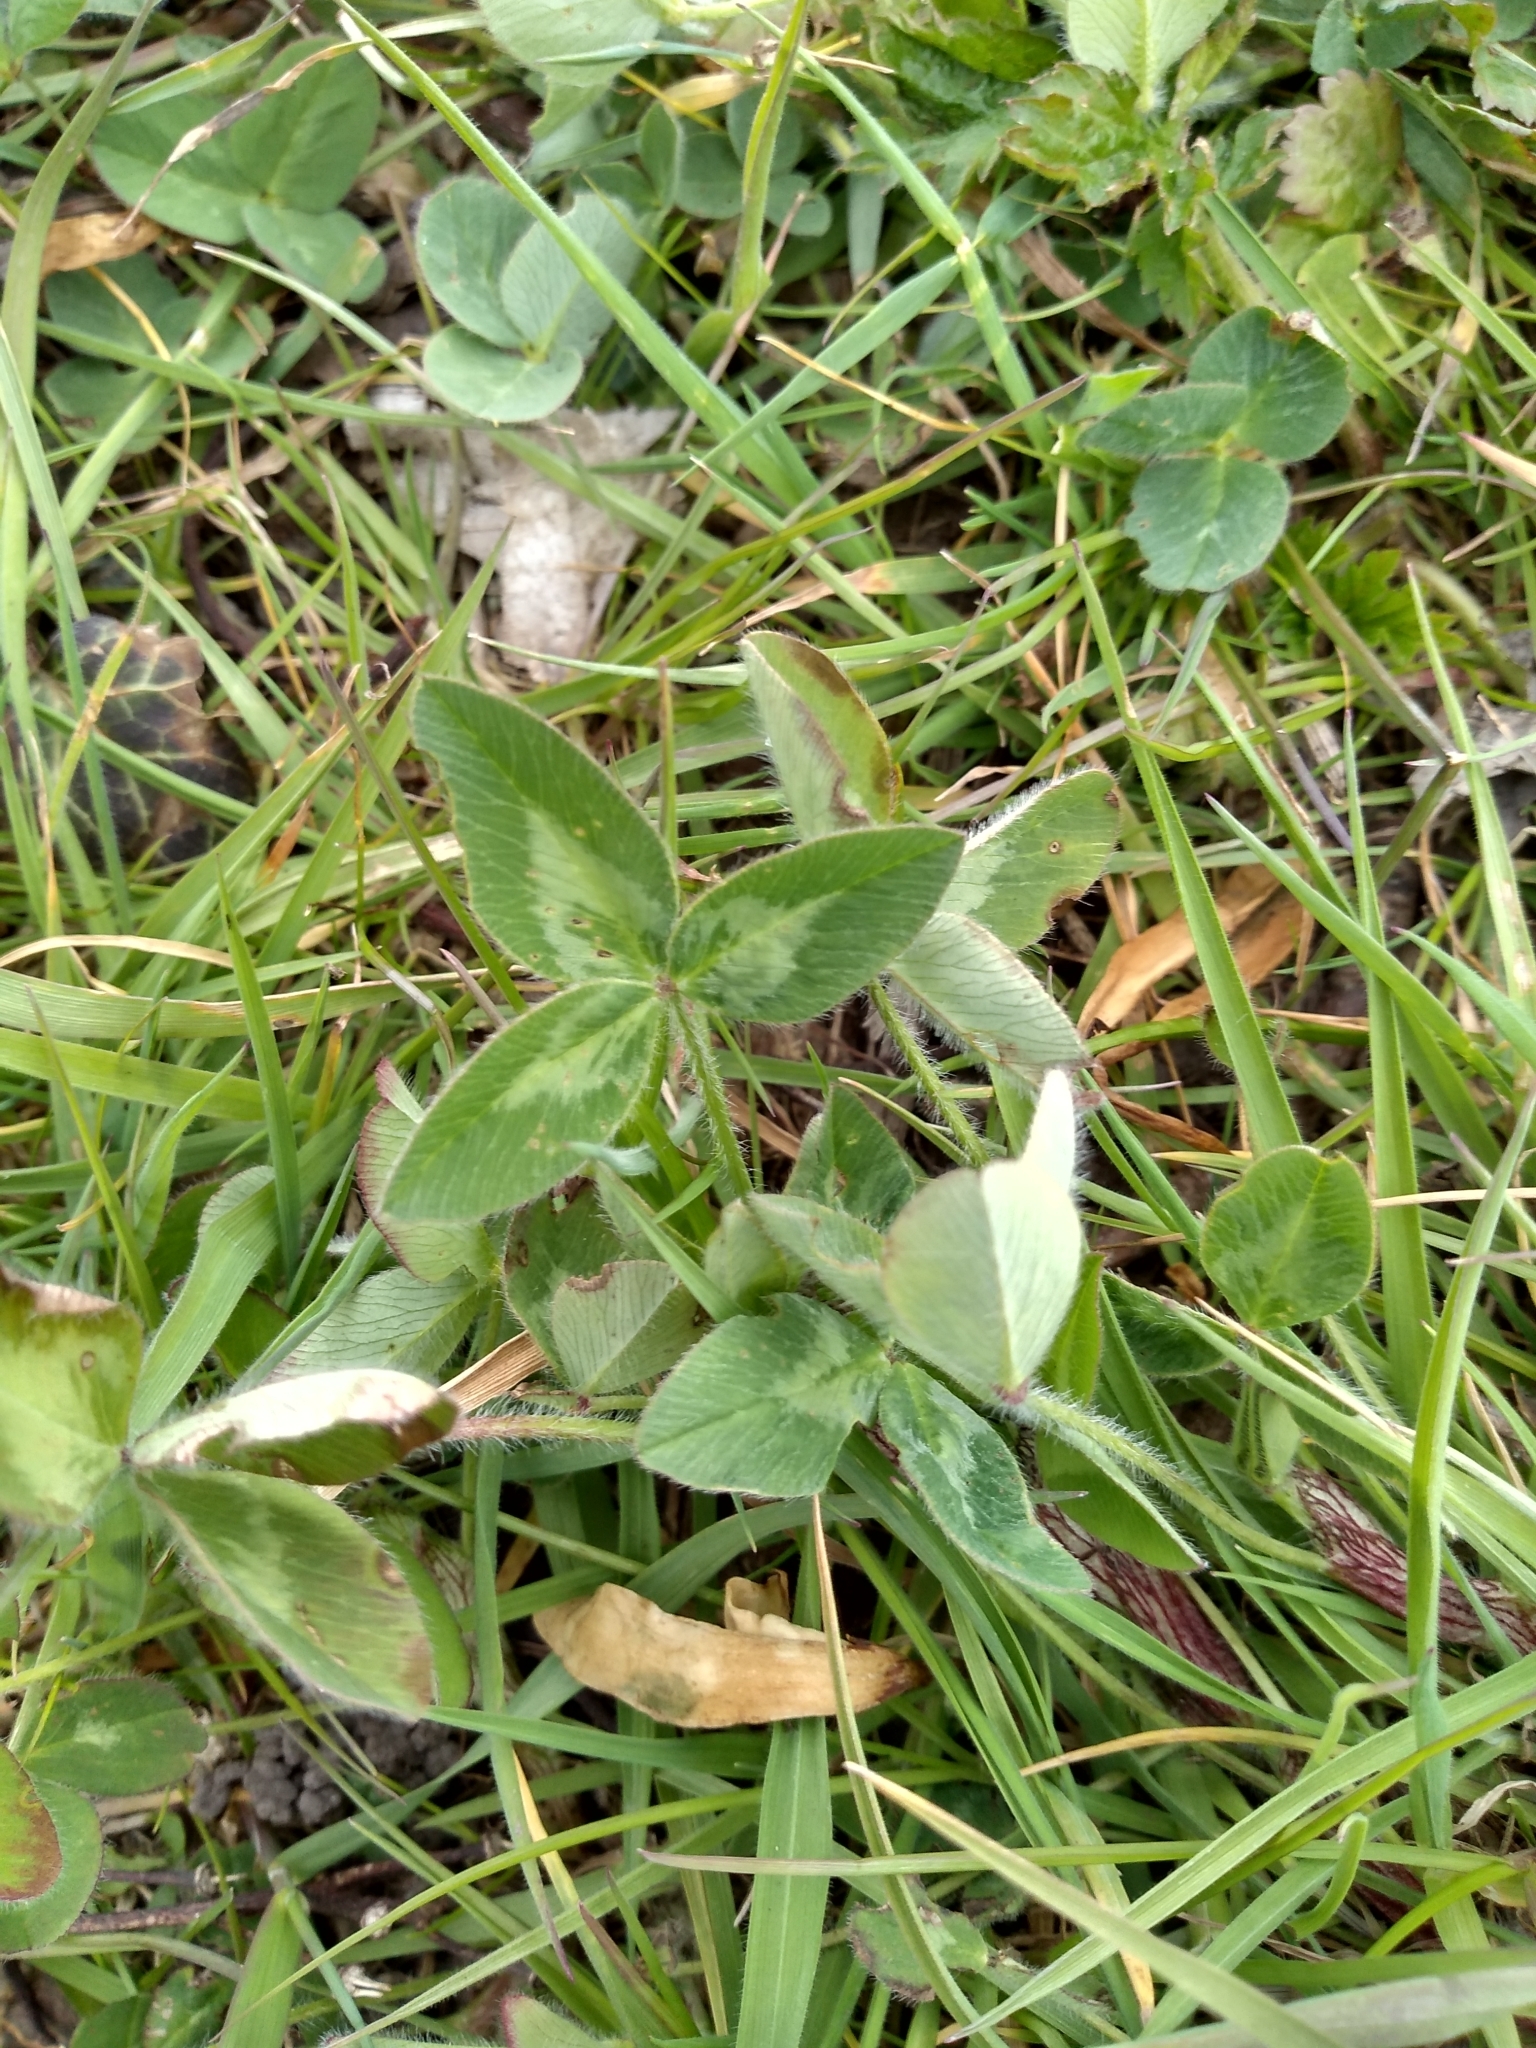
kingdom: Plantae
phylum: Tracheophyta
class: Magnoliopsida
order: Fabales
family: Fabaceae
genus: Trifolium
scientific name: Trifolium pratense
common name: Red clover
